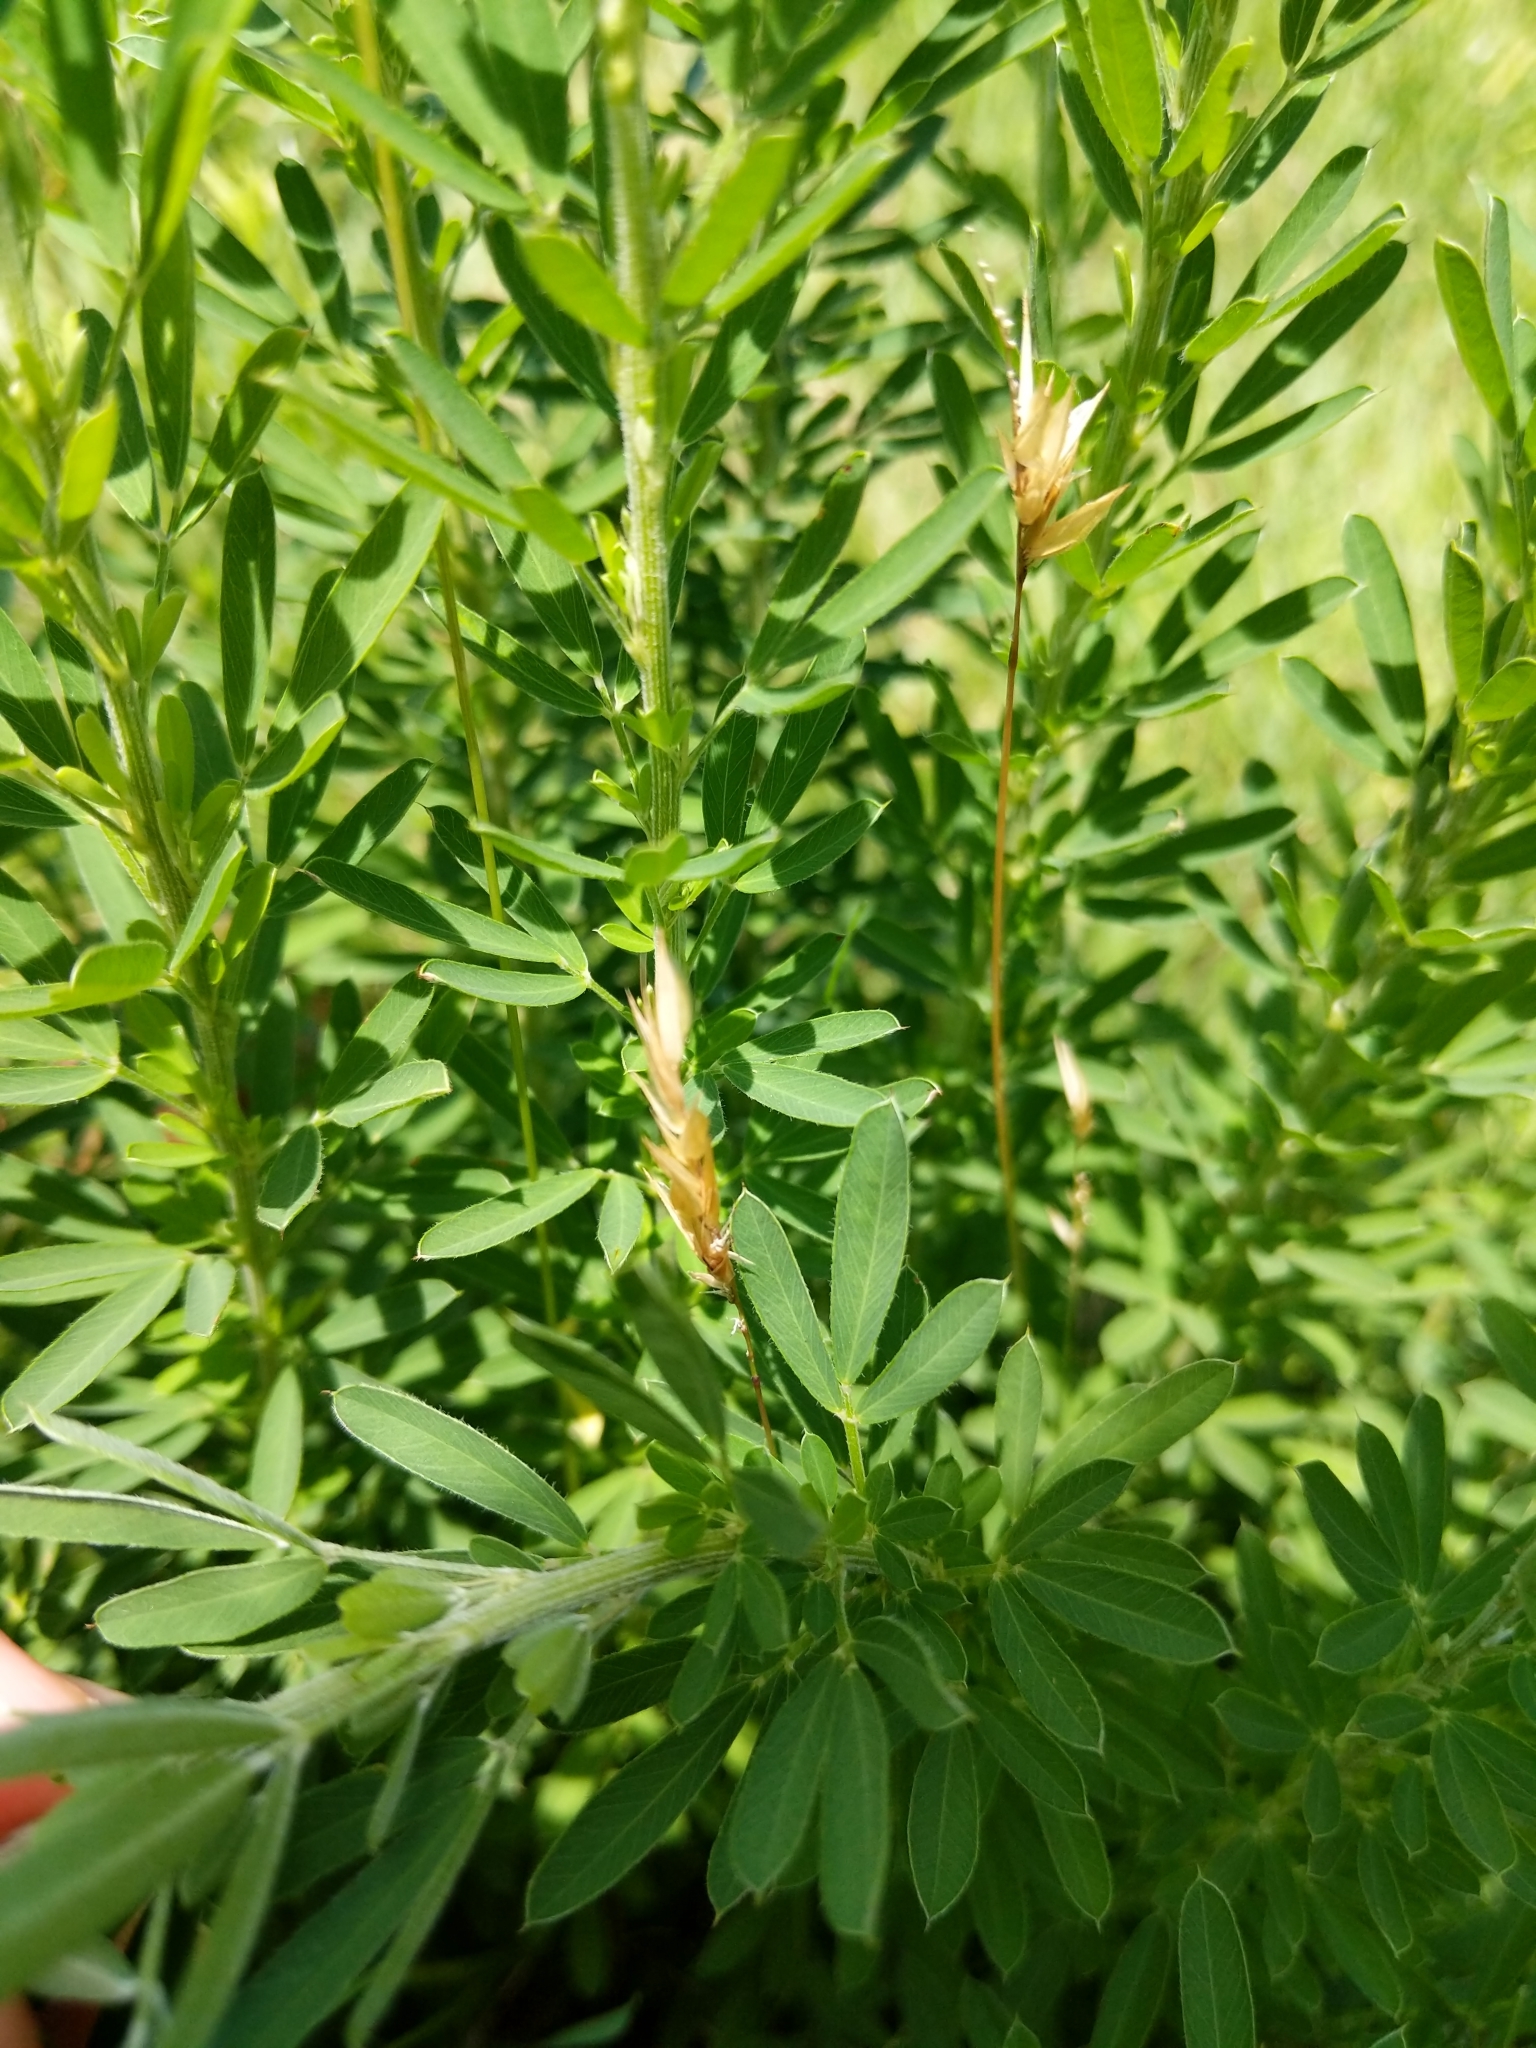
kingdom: Plantae
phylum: Tracheophyta
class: Magnoliopsida
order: Fabales
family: Fabaceae
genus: Lespedeza
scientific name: Lespedeza cuneata
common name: Chinese bush-clover
